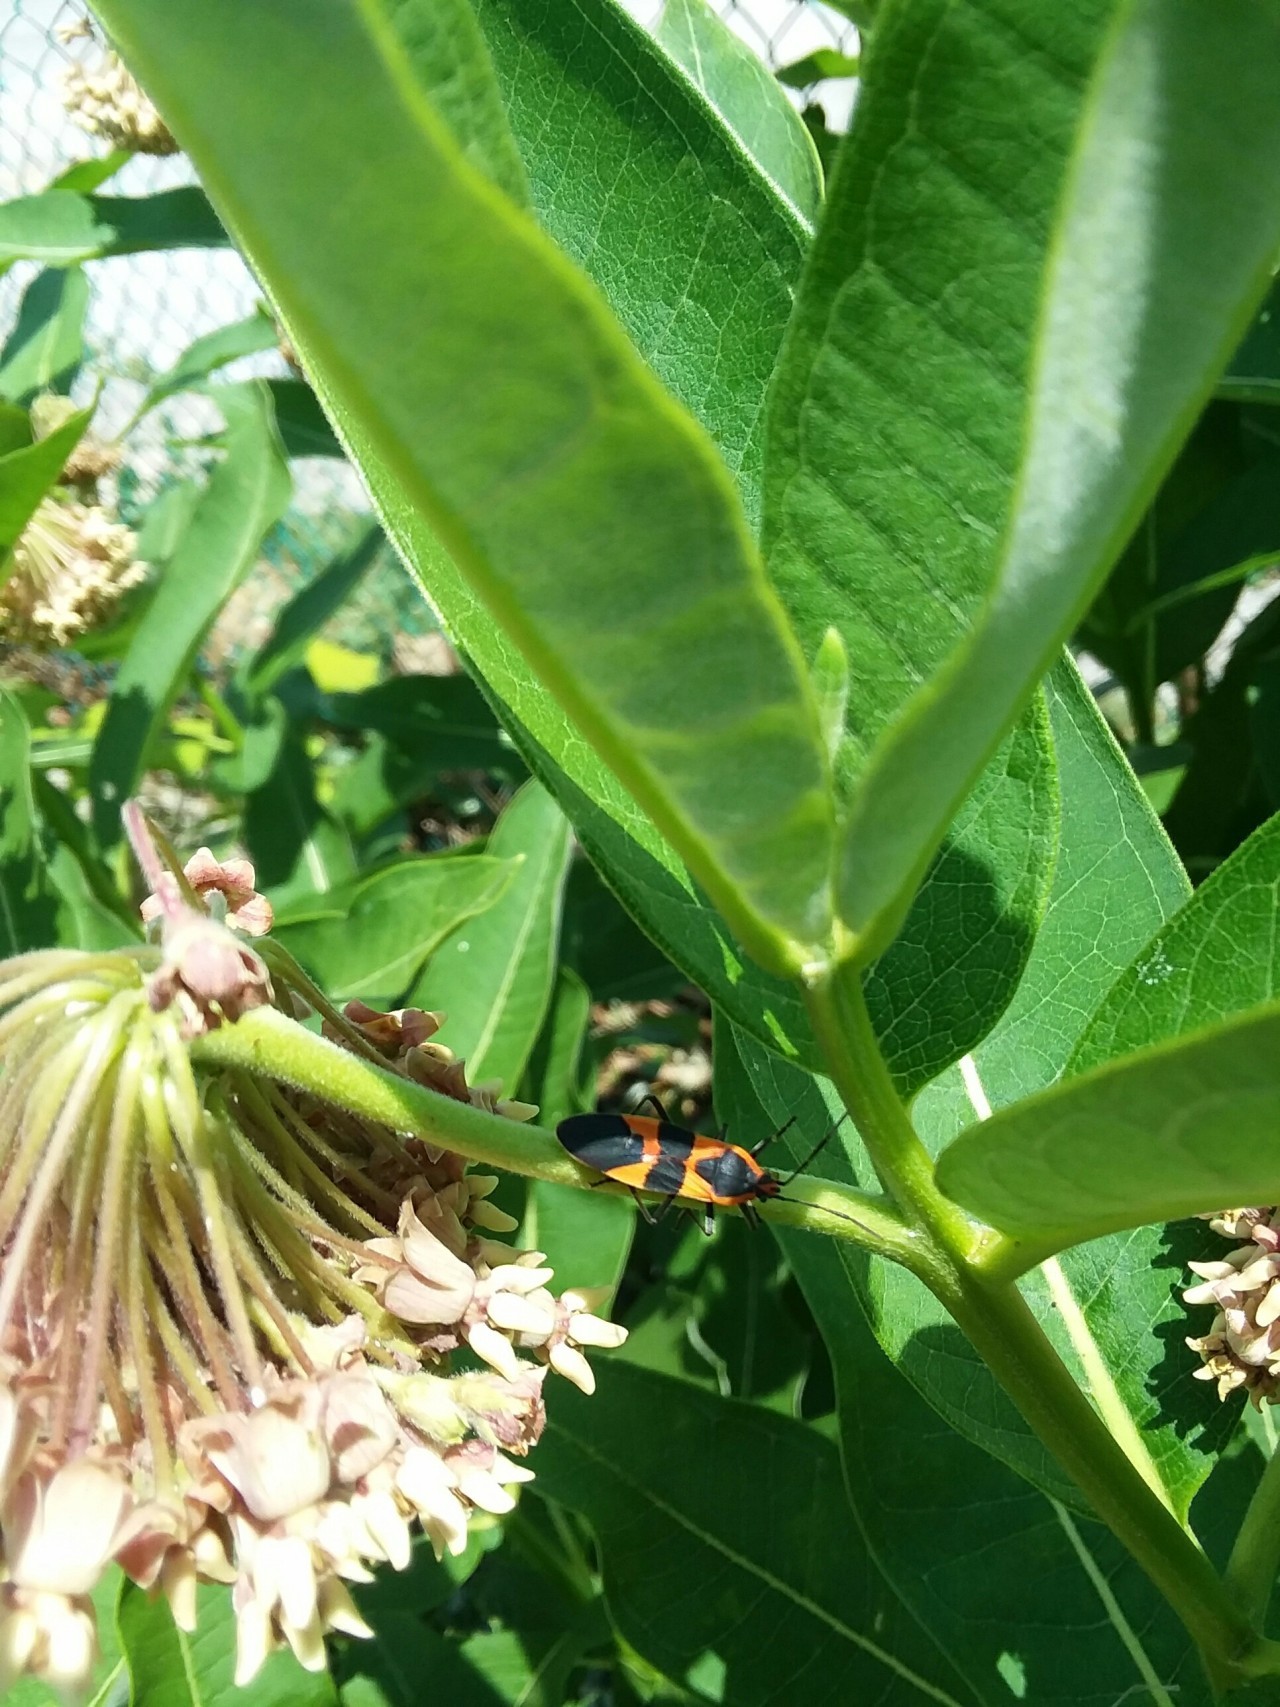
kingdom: Animalia
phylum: Arthropoda
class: Insecta
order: Hemiptera
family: Lygaeidae
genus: Oncopeltus
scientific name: Oncopeltus fasciatus
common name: Large milkweed bug
